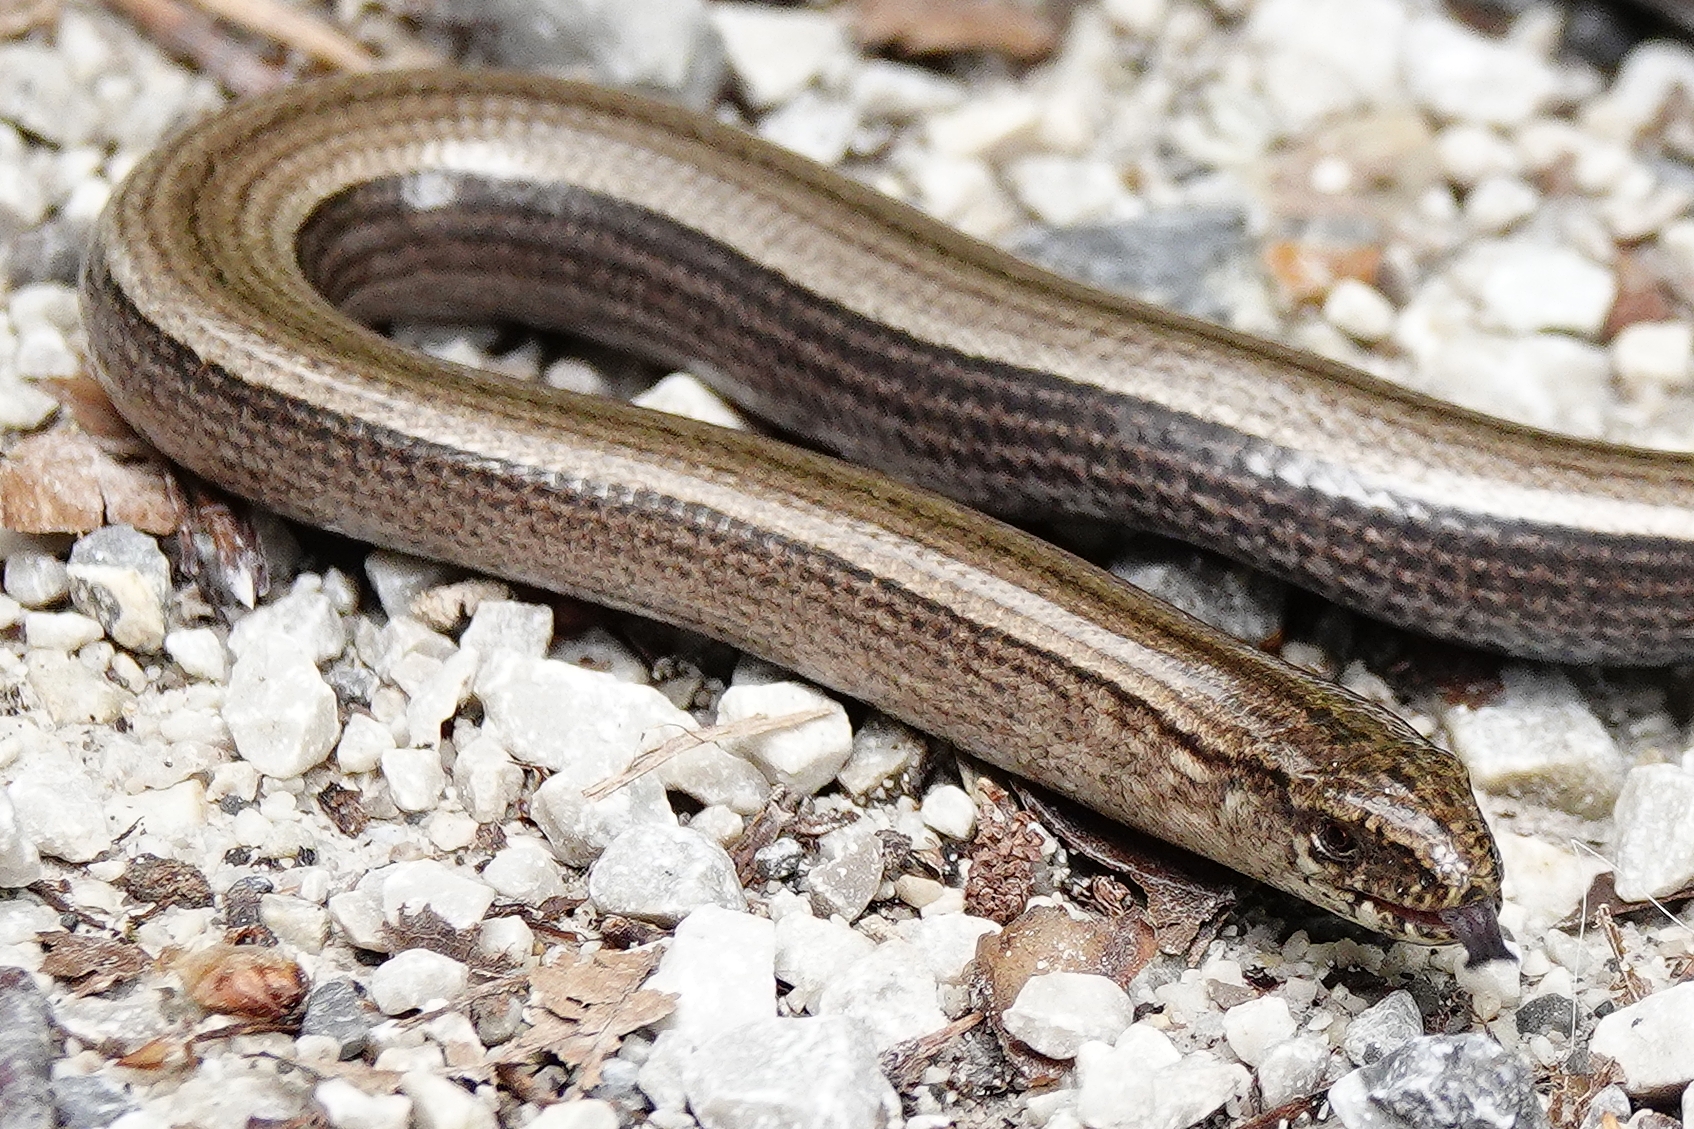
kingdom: Animalia
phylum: Chordata
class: Squamata
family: Anguidae
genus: Anguis
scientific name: Anguis fragilis
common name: Slow worm
